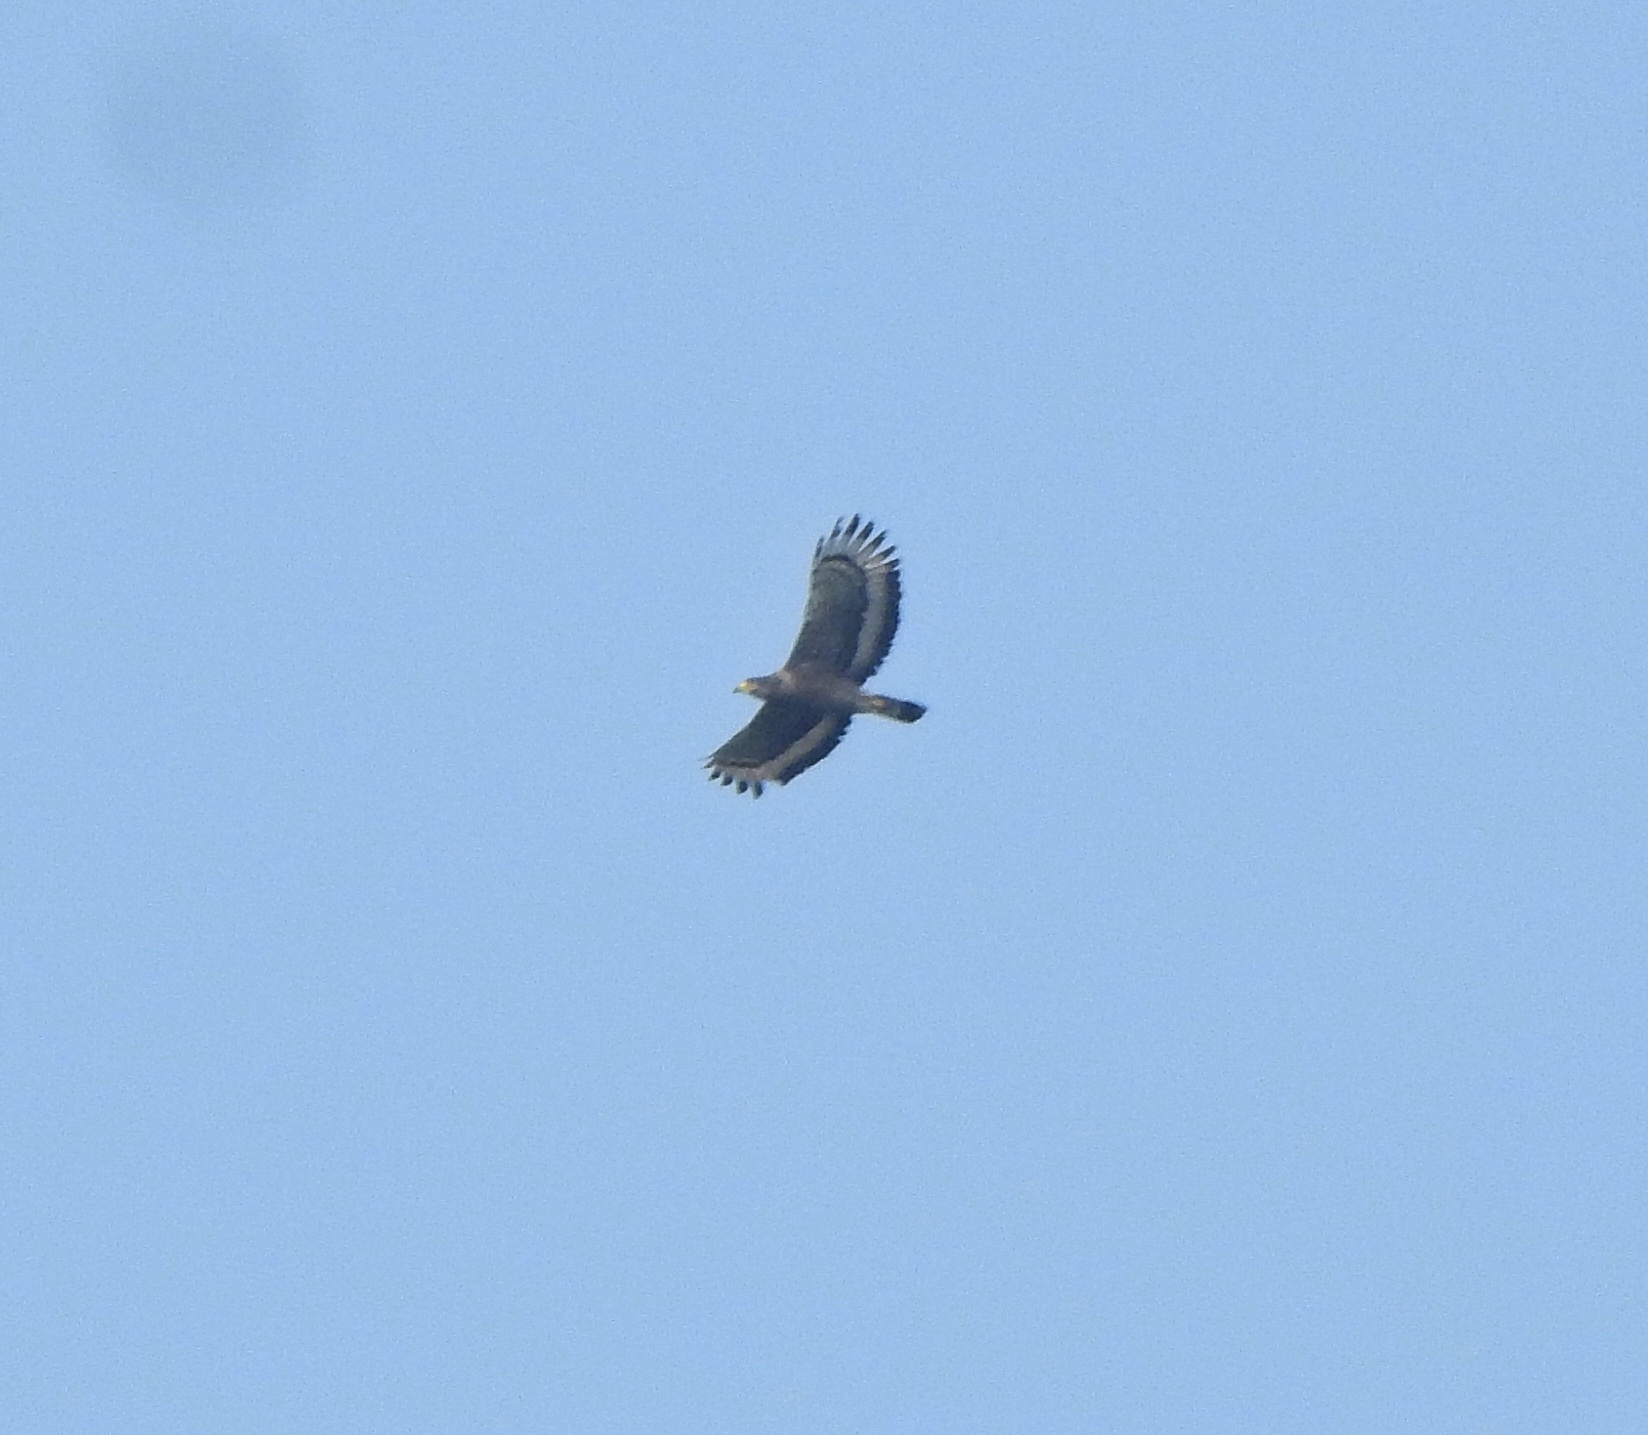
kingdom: Animalia
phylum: Chordata
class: Aves
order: Accipitriformes
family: Accipitridae
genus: Spilornis
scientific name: Spilornis cheela
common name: Crested serpent eagle
